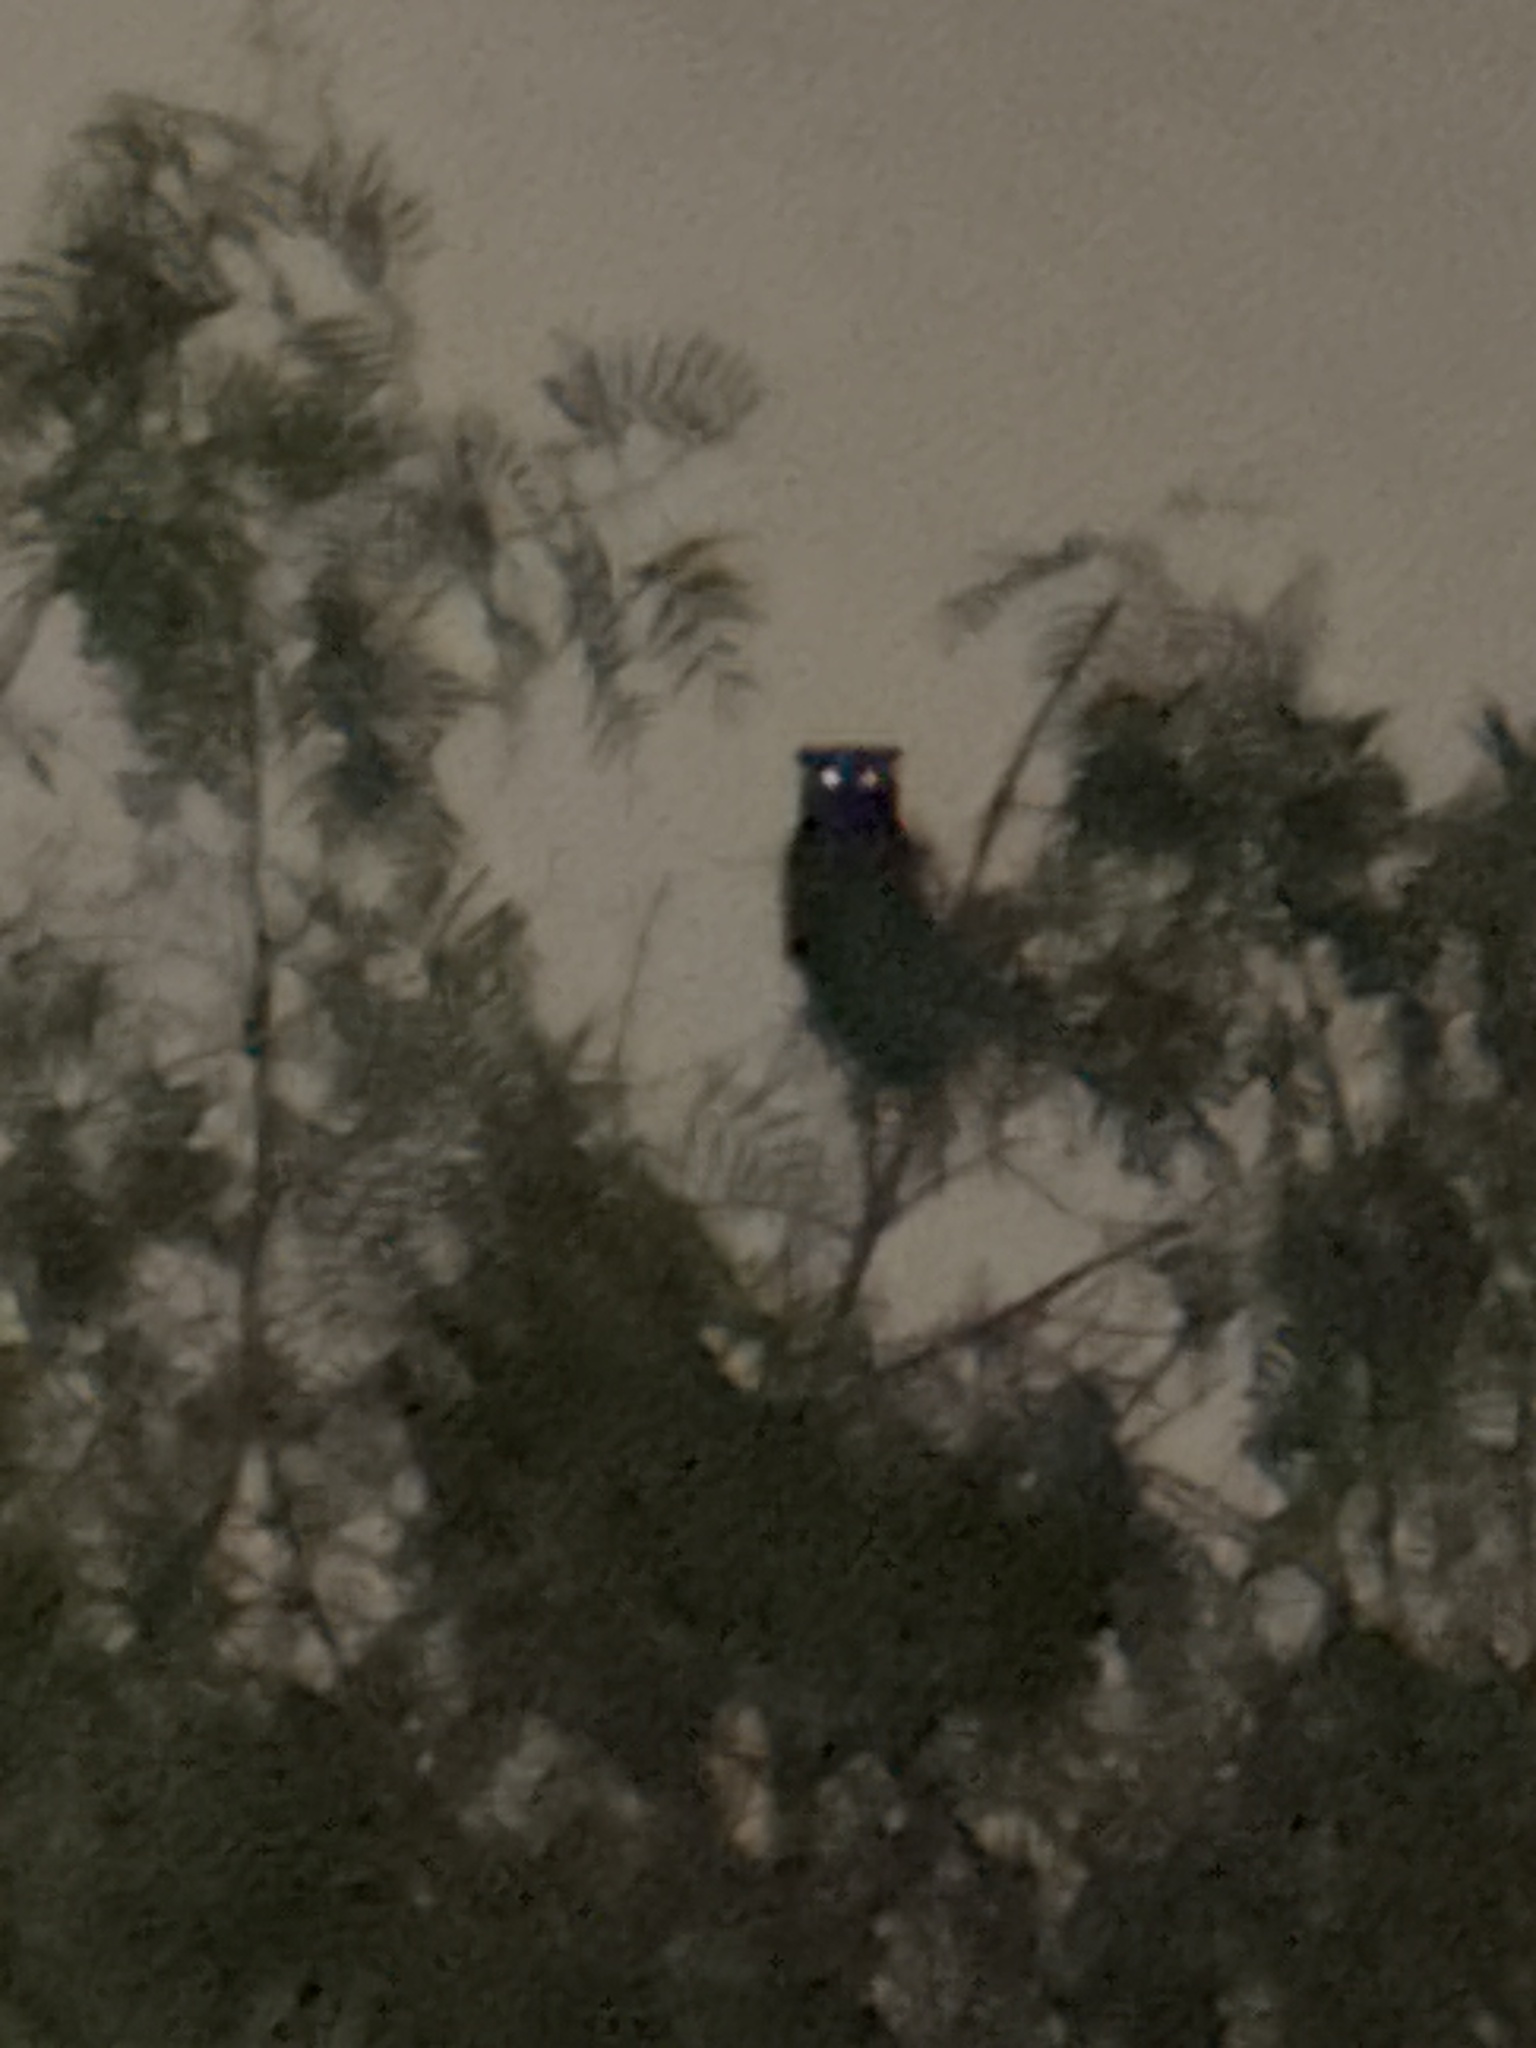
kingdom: Animalia
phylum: Chordata
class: Aves
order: Strigiformes
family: Strigidae
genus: Bubo
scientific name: Bubo virginianus
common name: Great horned owl
